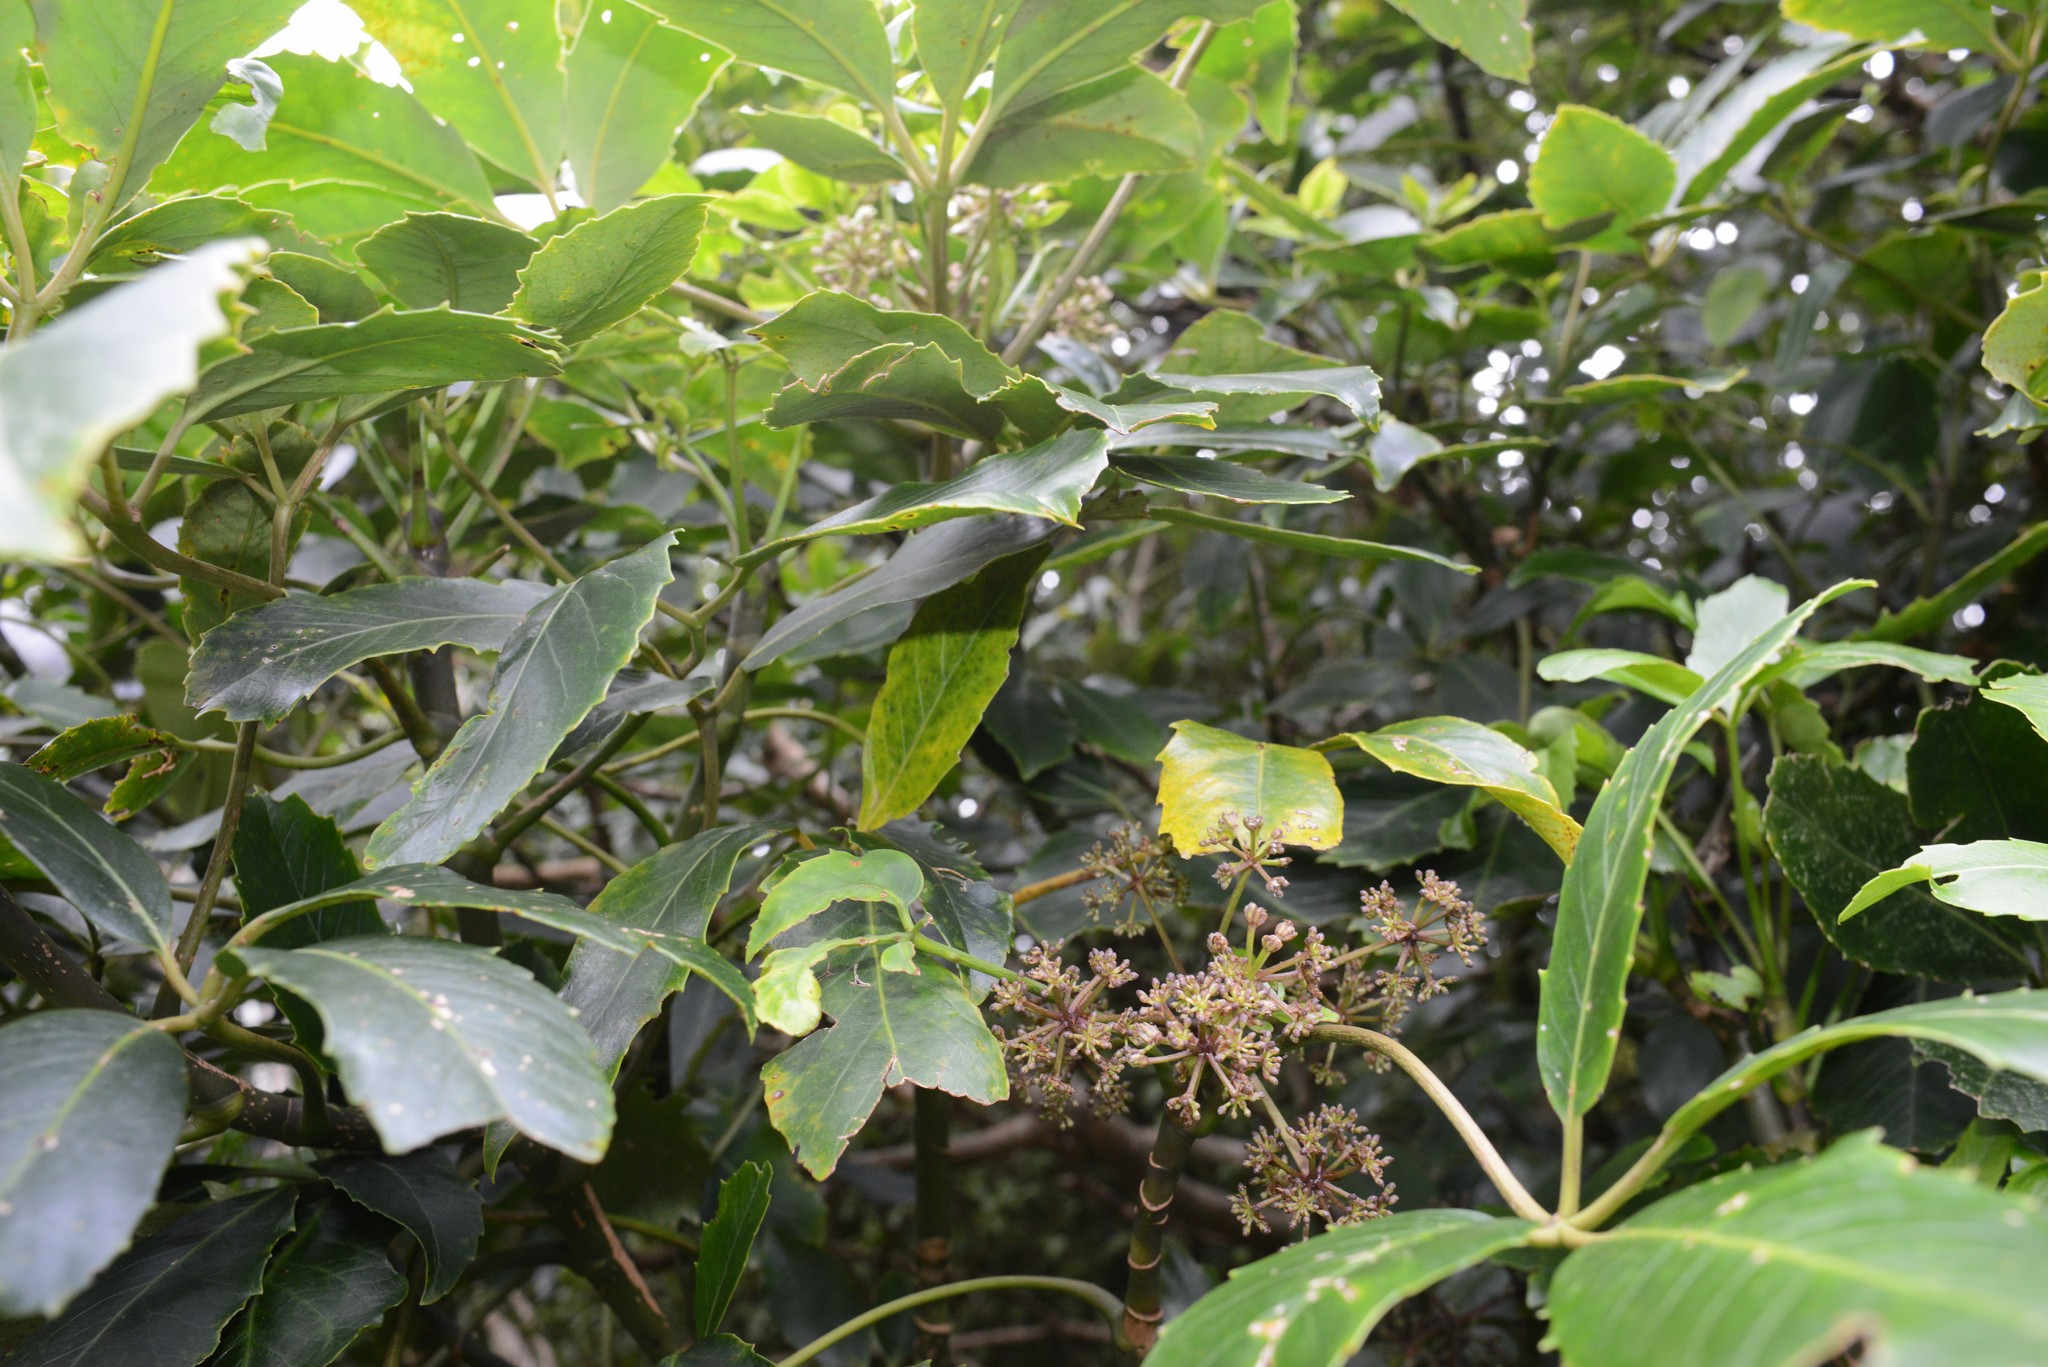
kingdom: Plantae
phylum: Tracheophyta
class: Magnoliopsida
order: Apiales
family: Araliaceae
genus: Neopanax
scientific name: Neopanax arboreus
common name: Five-fingers
